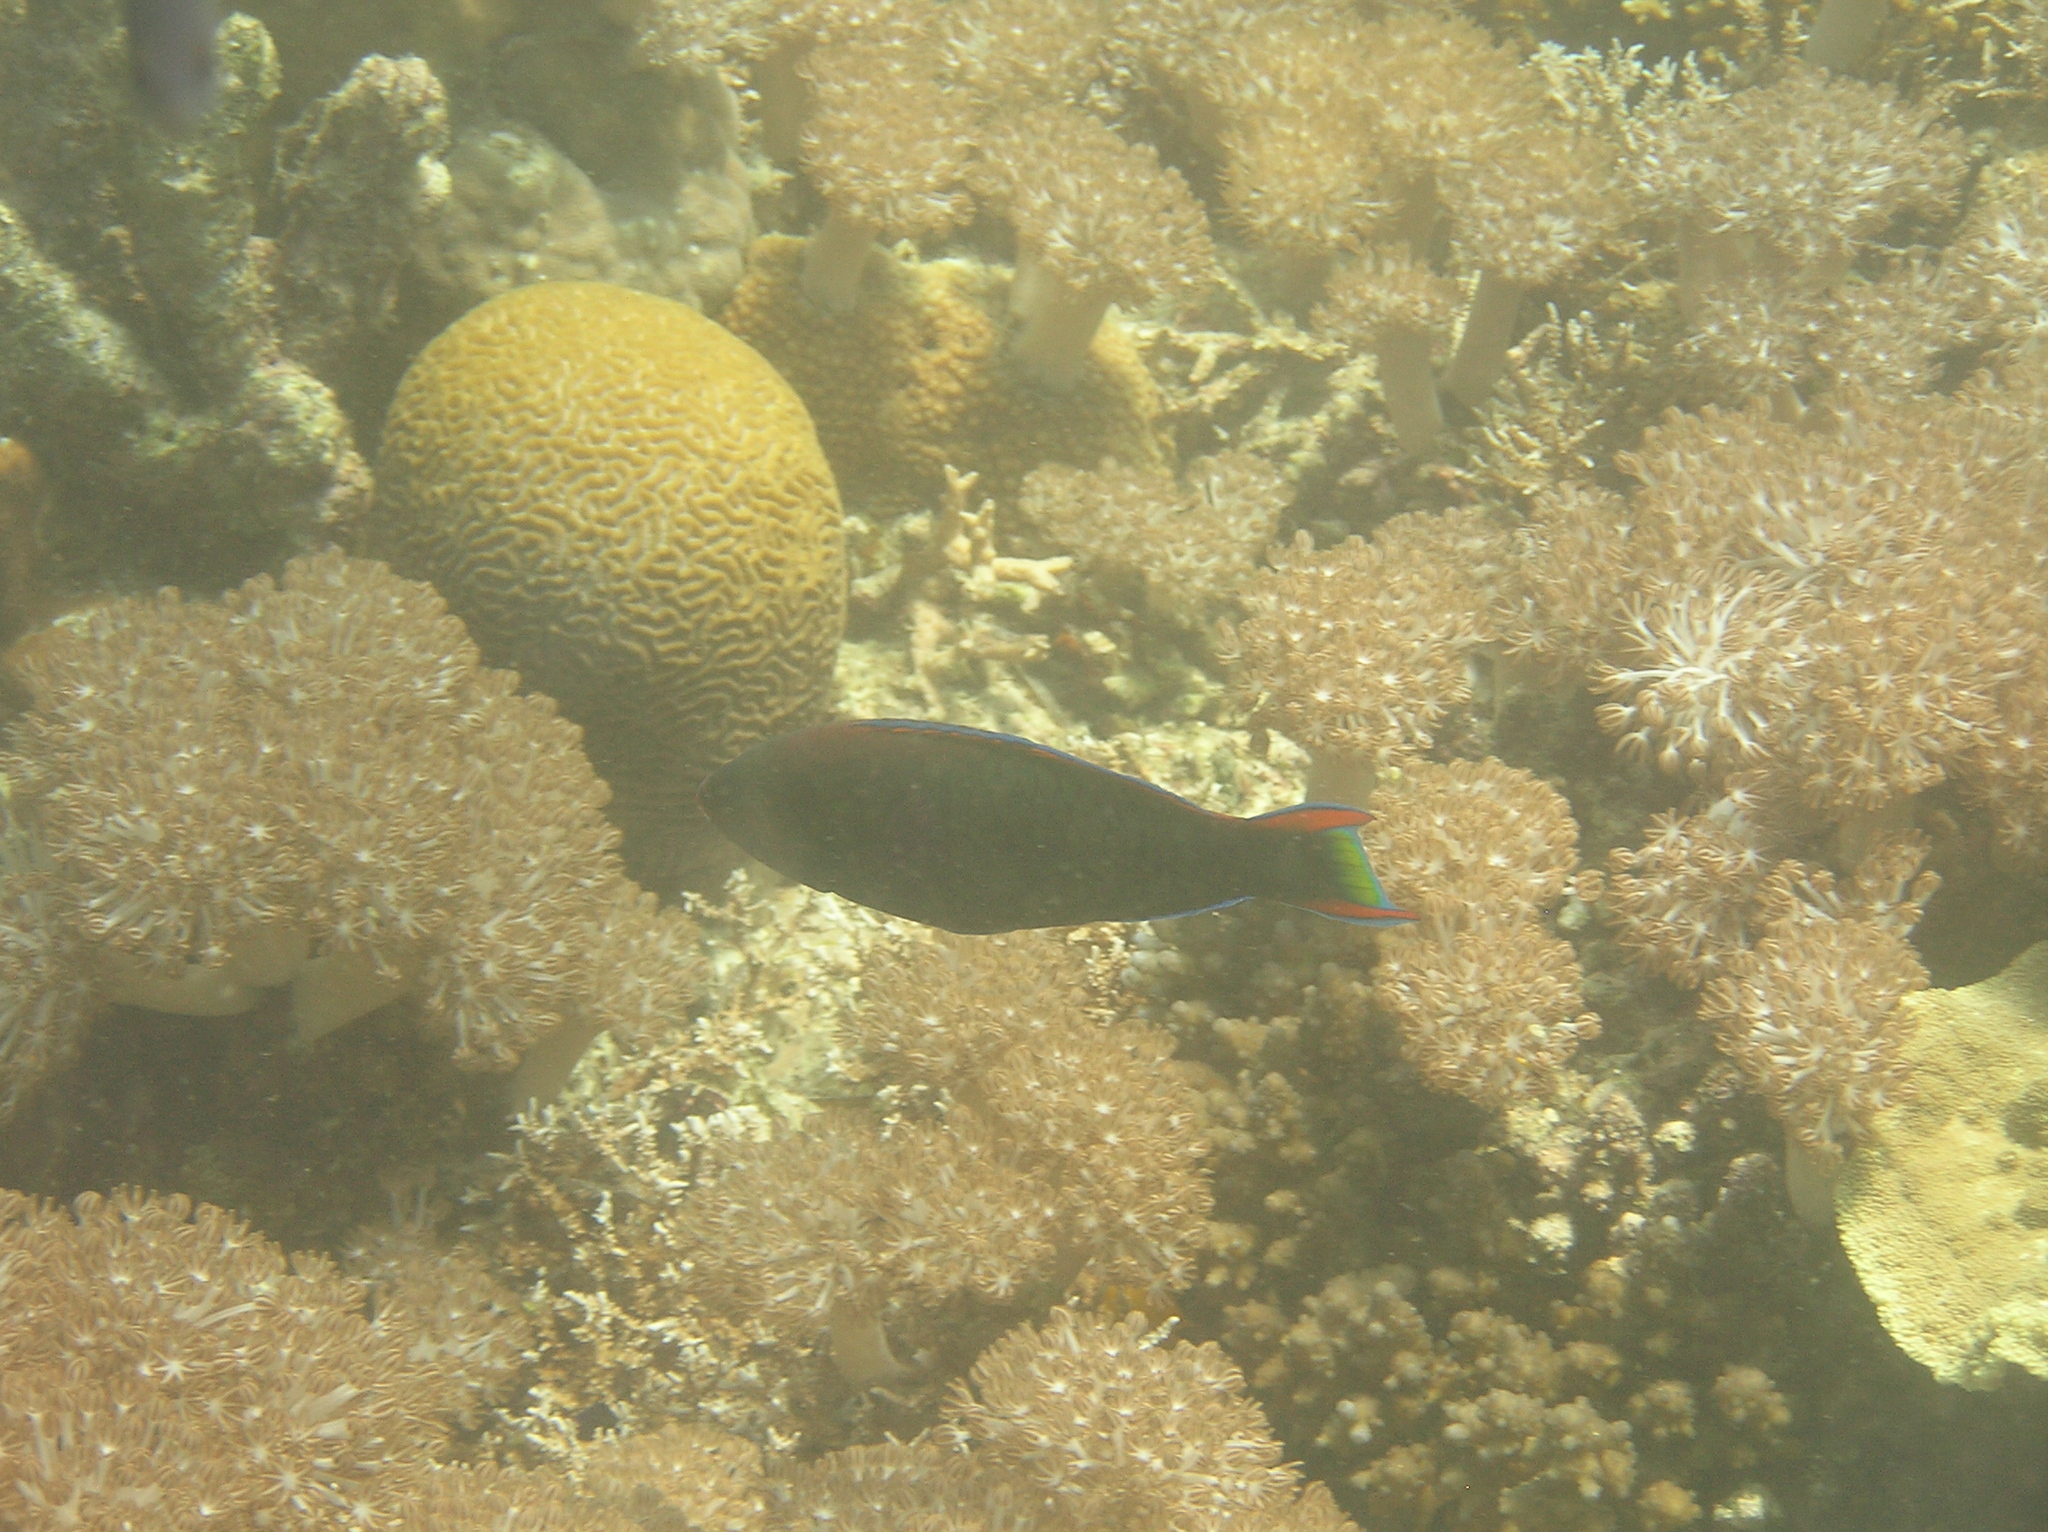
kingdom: Animalia
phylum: Chordata
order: Perciformes
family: Scaridae
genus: Scarus
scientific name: Scarus niger
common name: Dusky parrotfish
